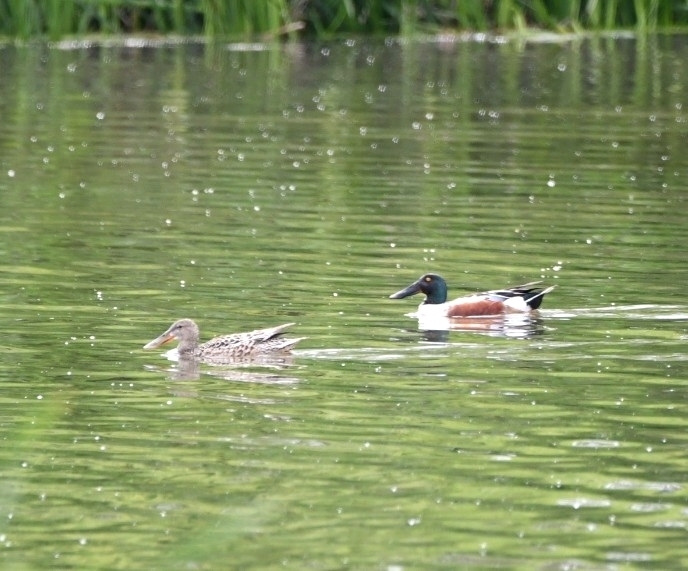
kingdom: Animalia
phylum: Chordata
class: Aves
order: Anseriformes
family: Anatidae
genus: Spatula
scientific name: Spatula clypeata
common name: Northern shoveler
